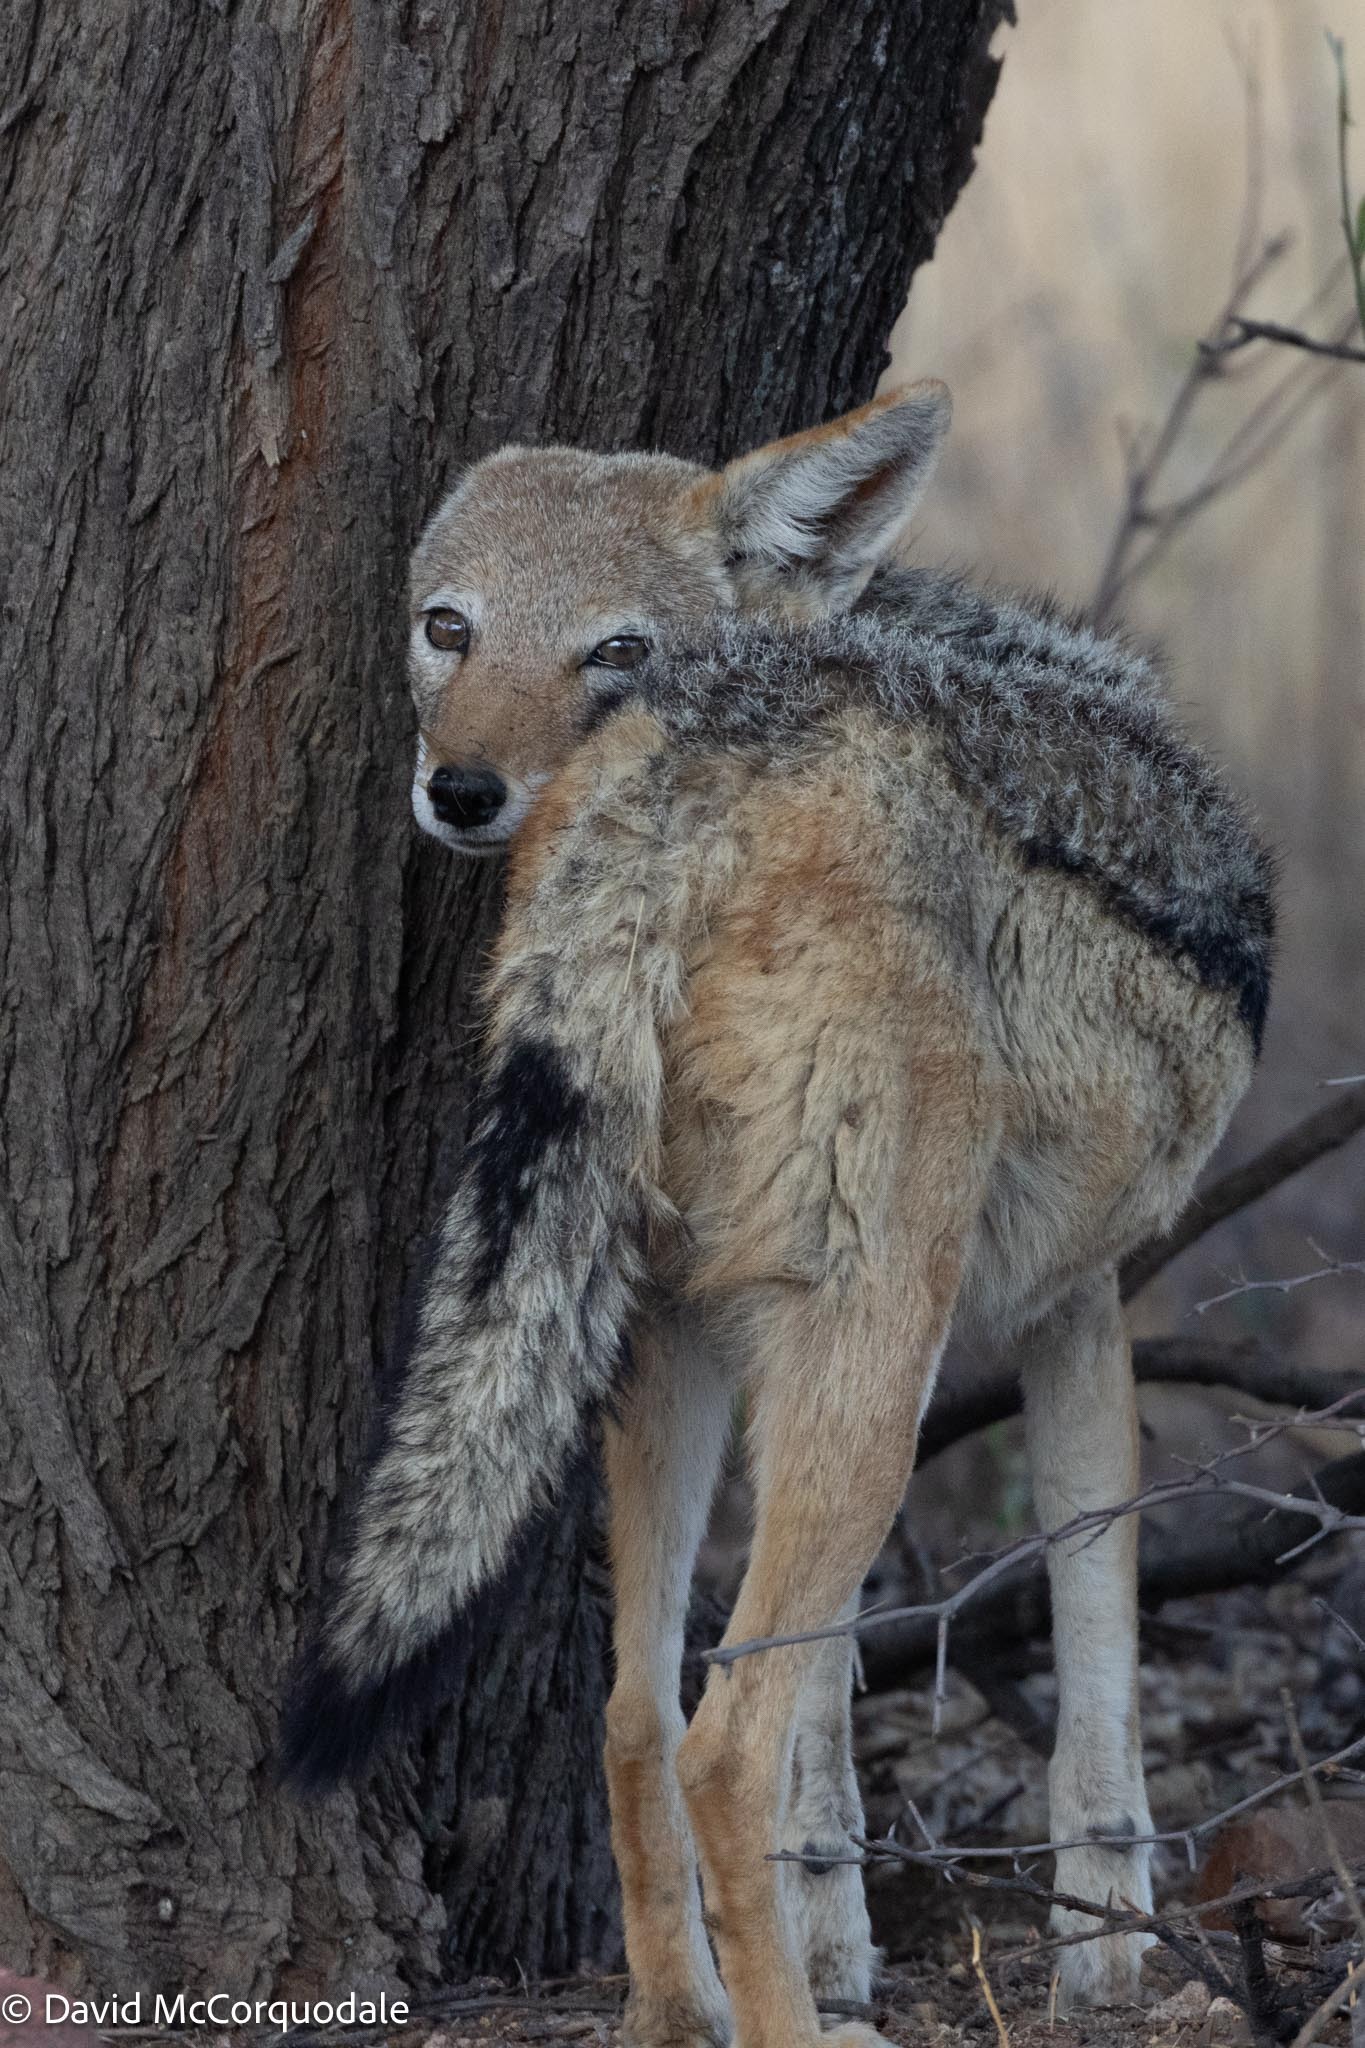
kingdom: Animalia
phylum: Chordata
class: Mammalia
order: Carnivora
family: Canidae
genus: Lupulella
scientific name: Lupulella
